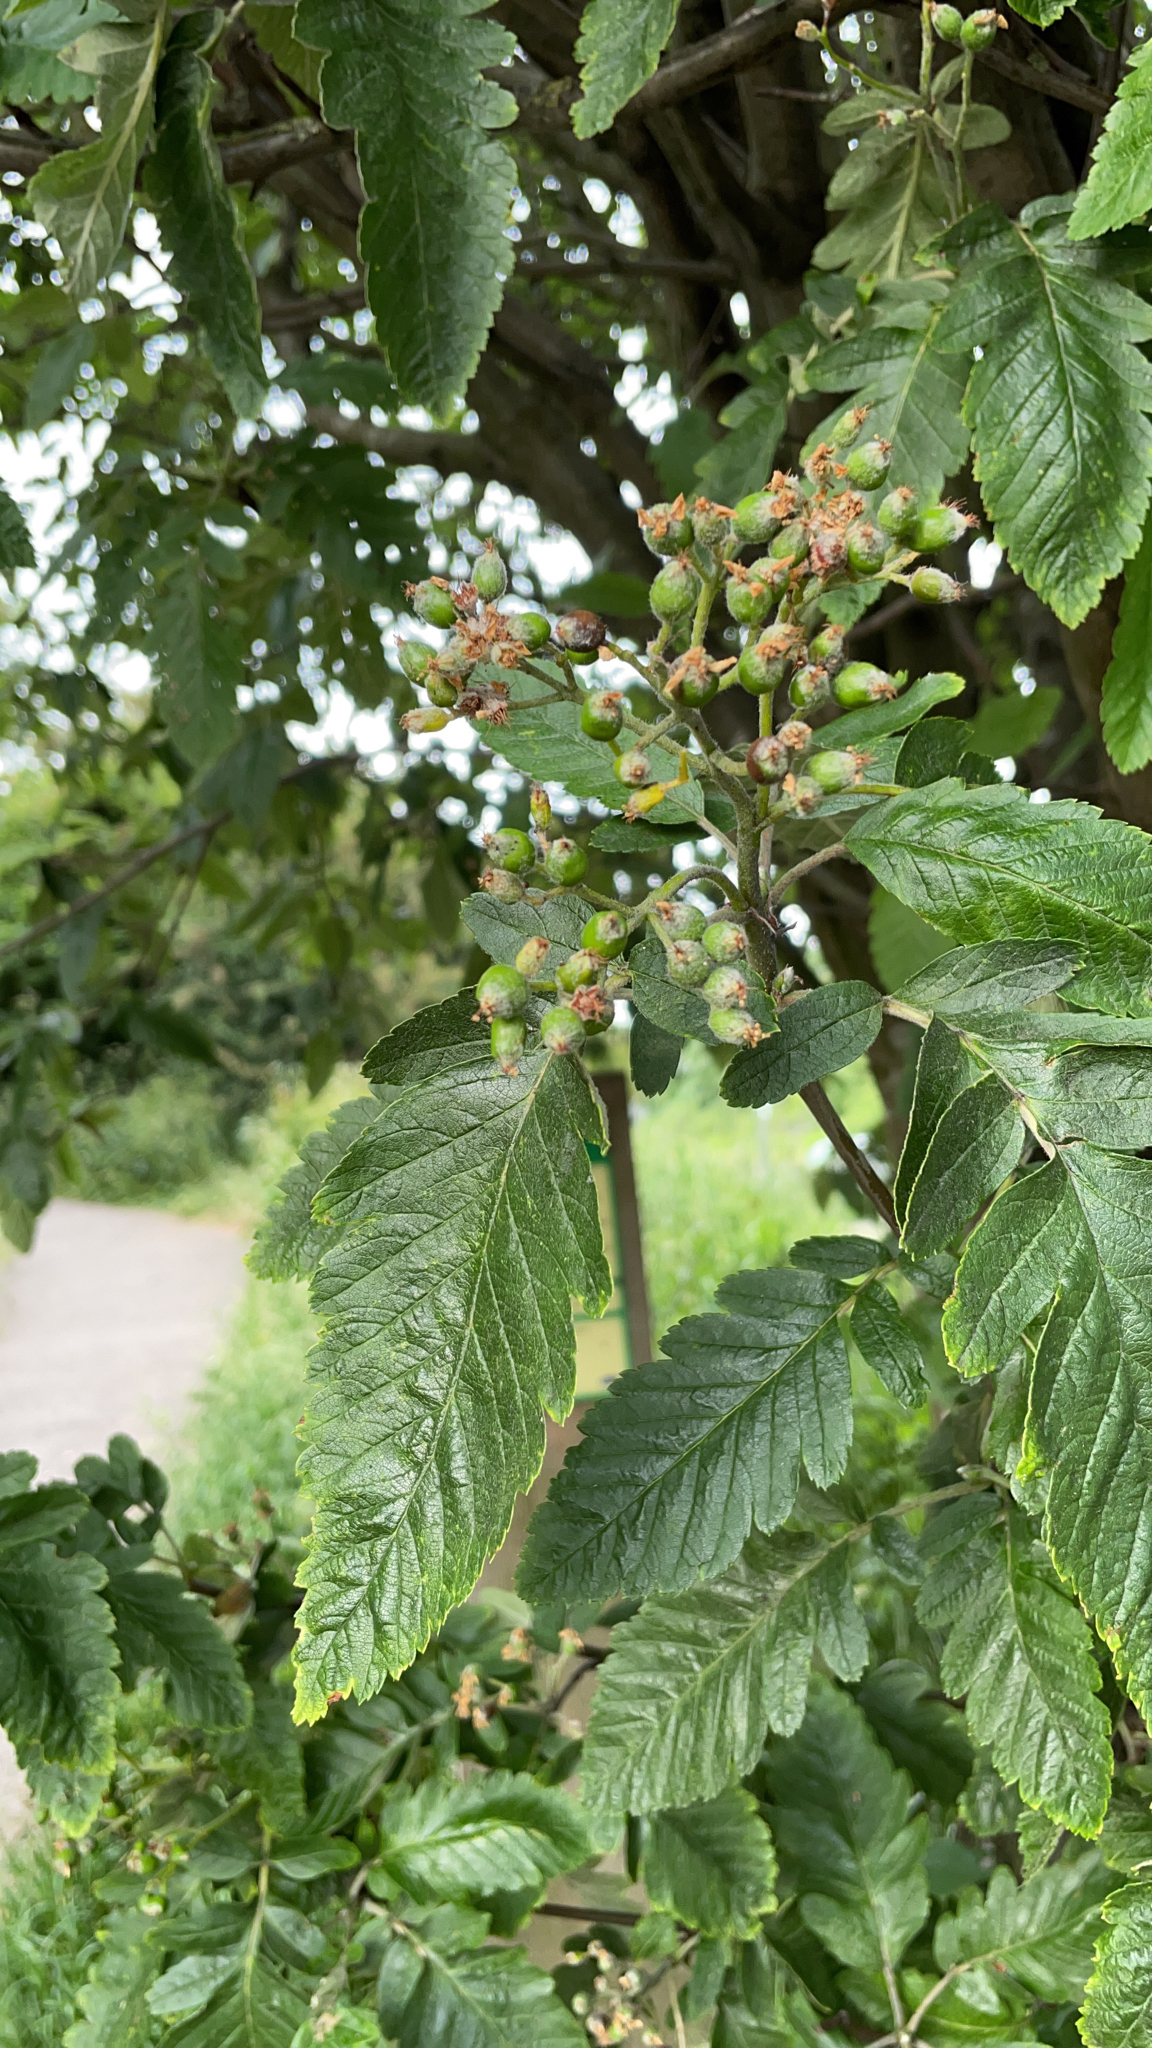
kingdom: Plantae
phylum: Tracheophyta
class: Magnoliopsida
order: Rosales
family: Rosaceae
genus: Scandosorbus
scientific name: Scandosorbus intermedia
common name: Swedish whitebeam
